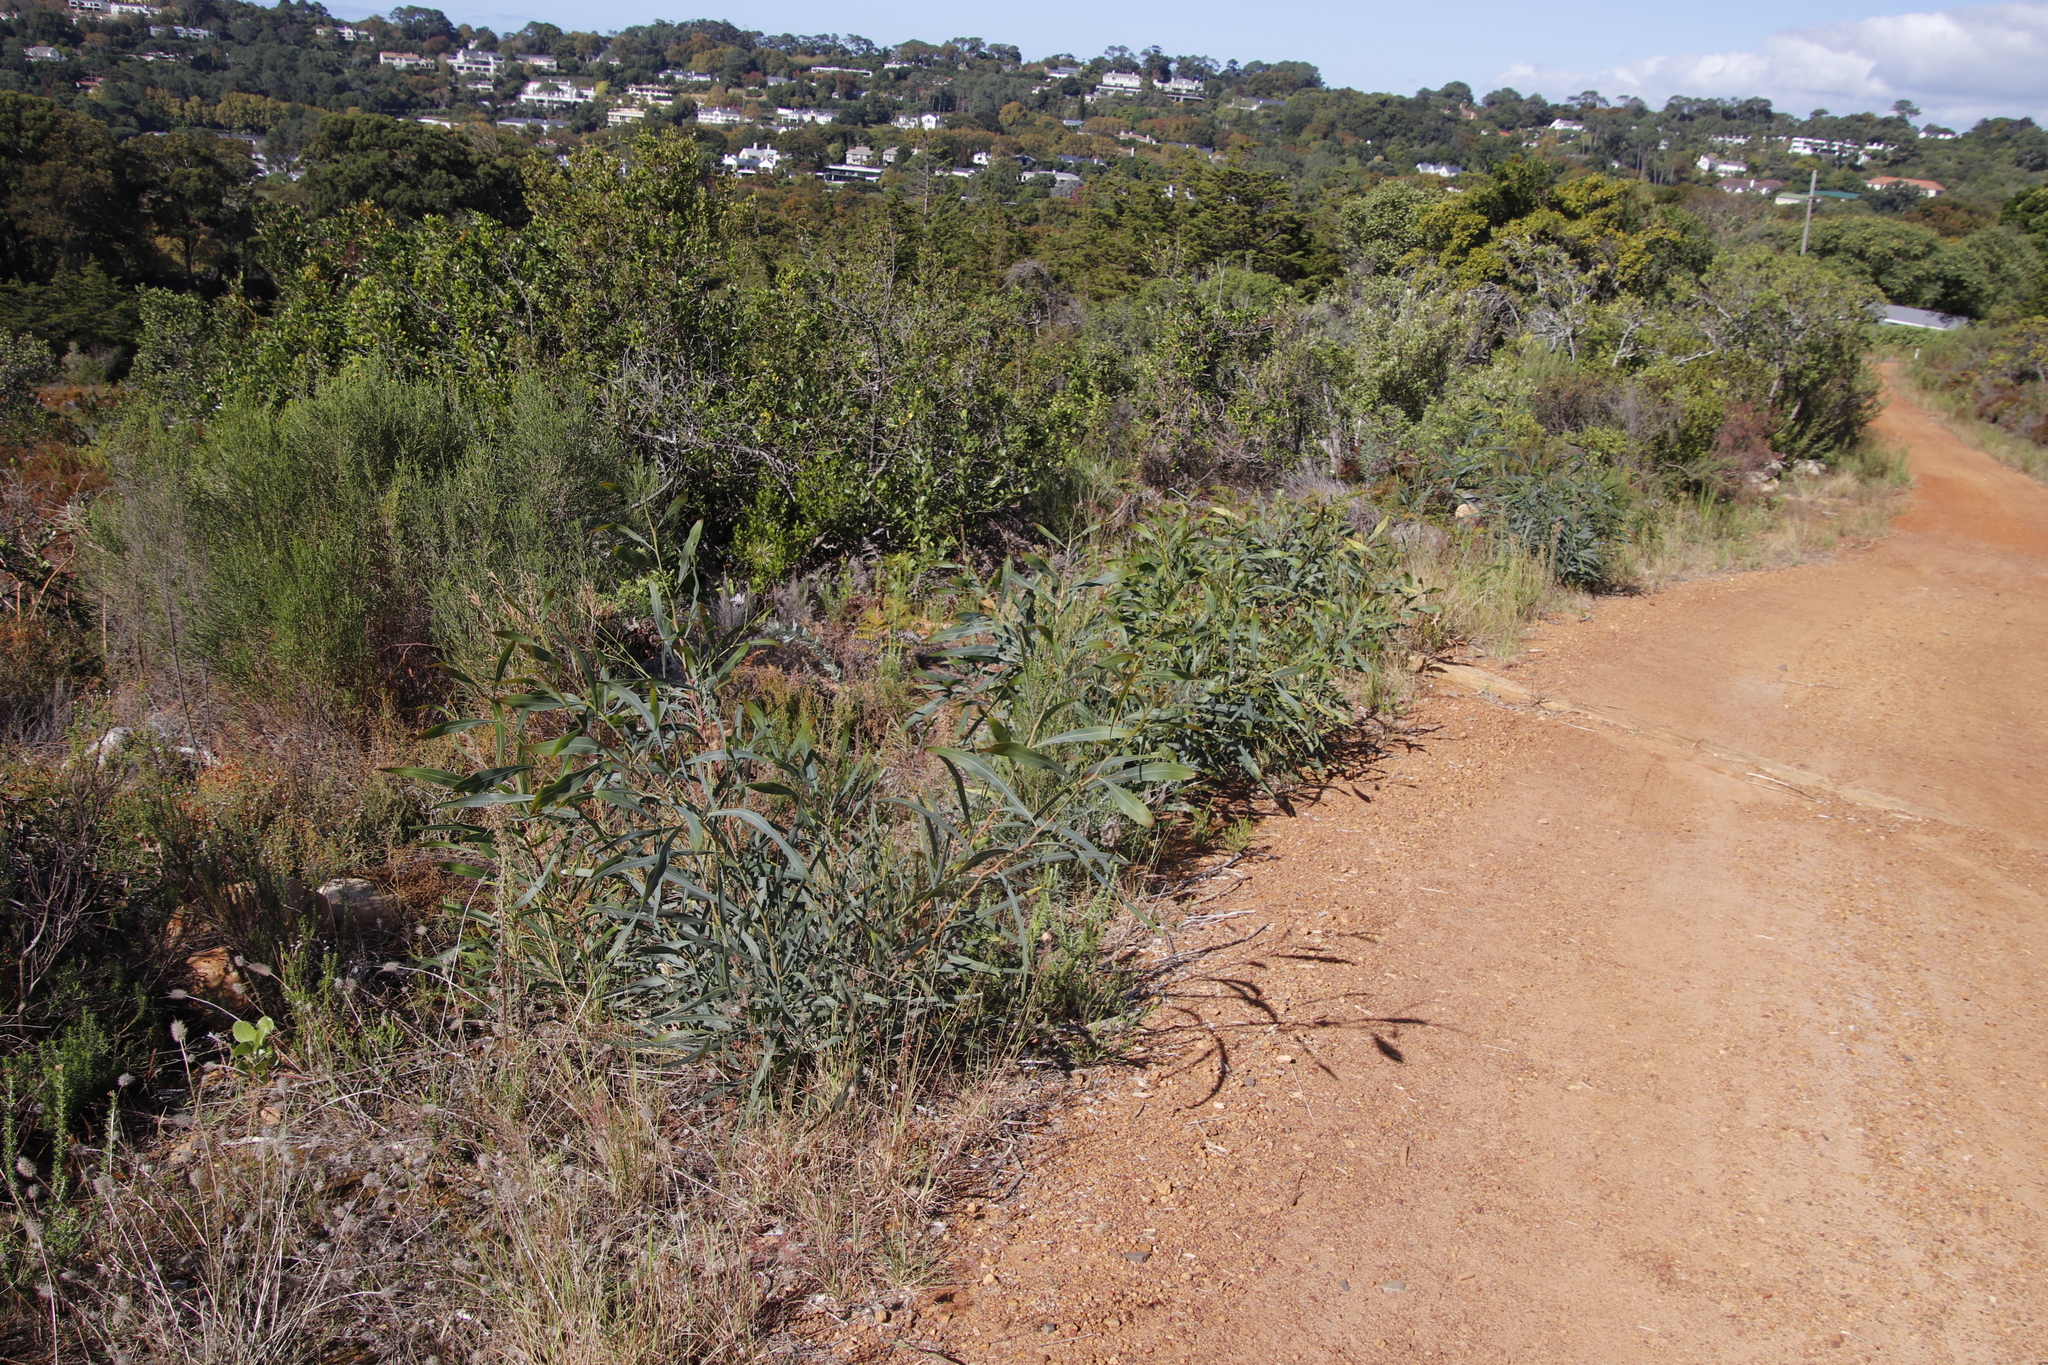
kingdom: Plantae
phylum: Tracheophyta
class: Magnoliopsida
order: Fabales
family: Fabaceae
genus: Acacia
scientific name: Acacia saligna
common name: Orange wattle
